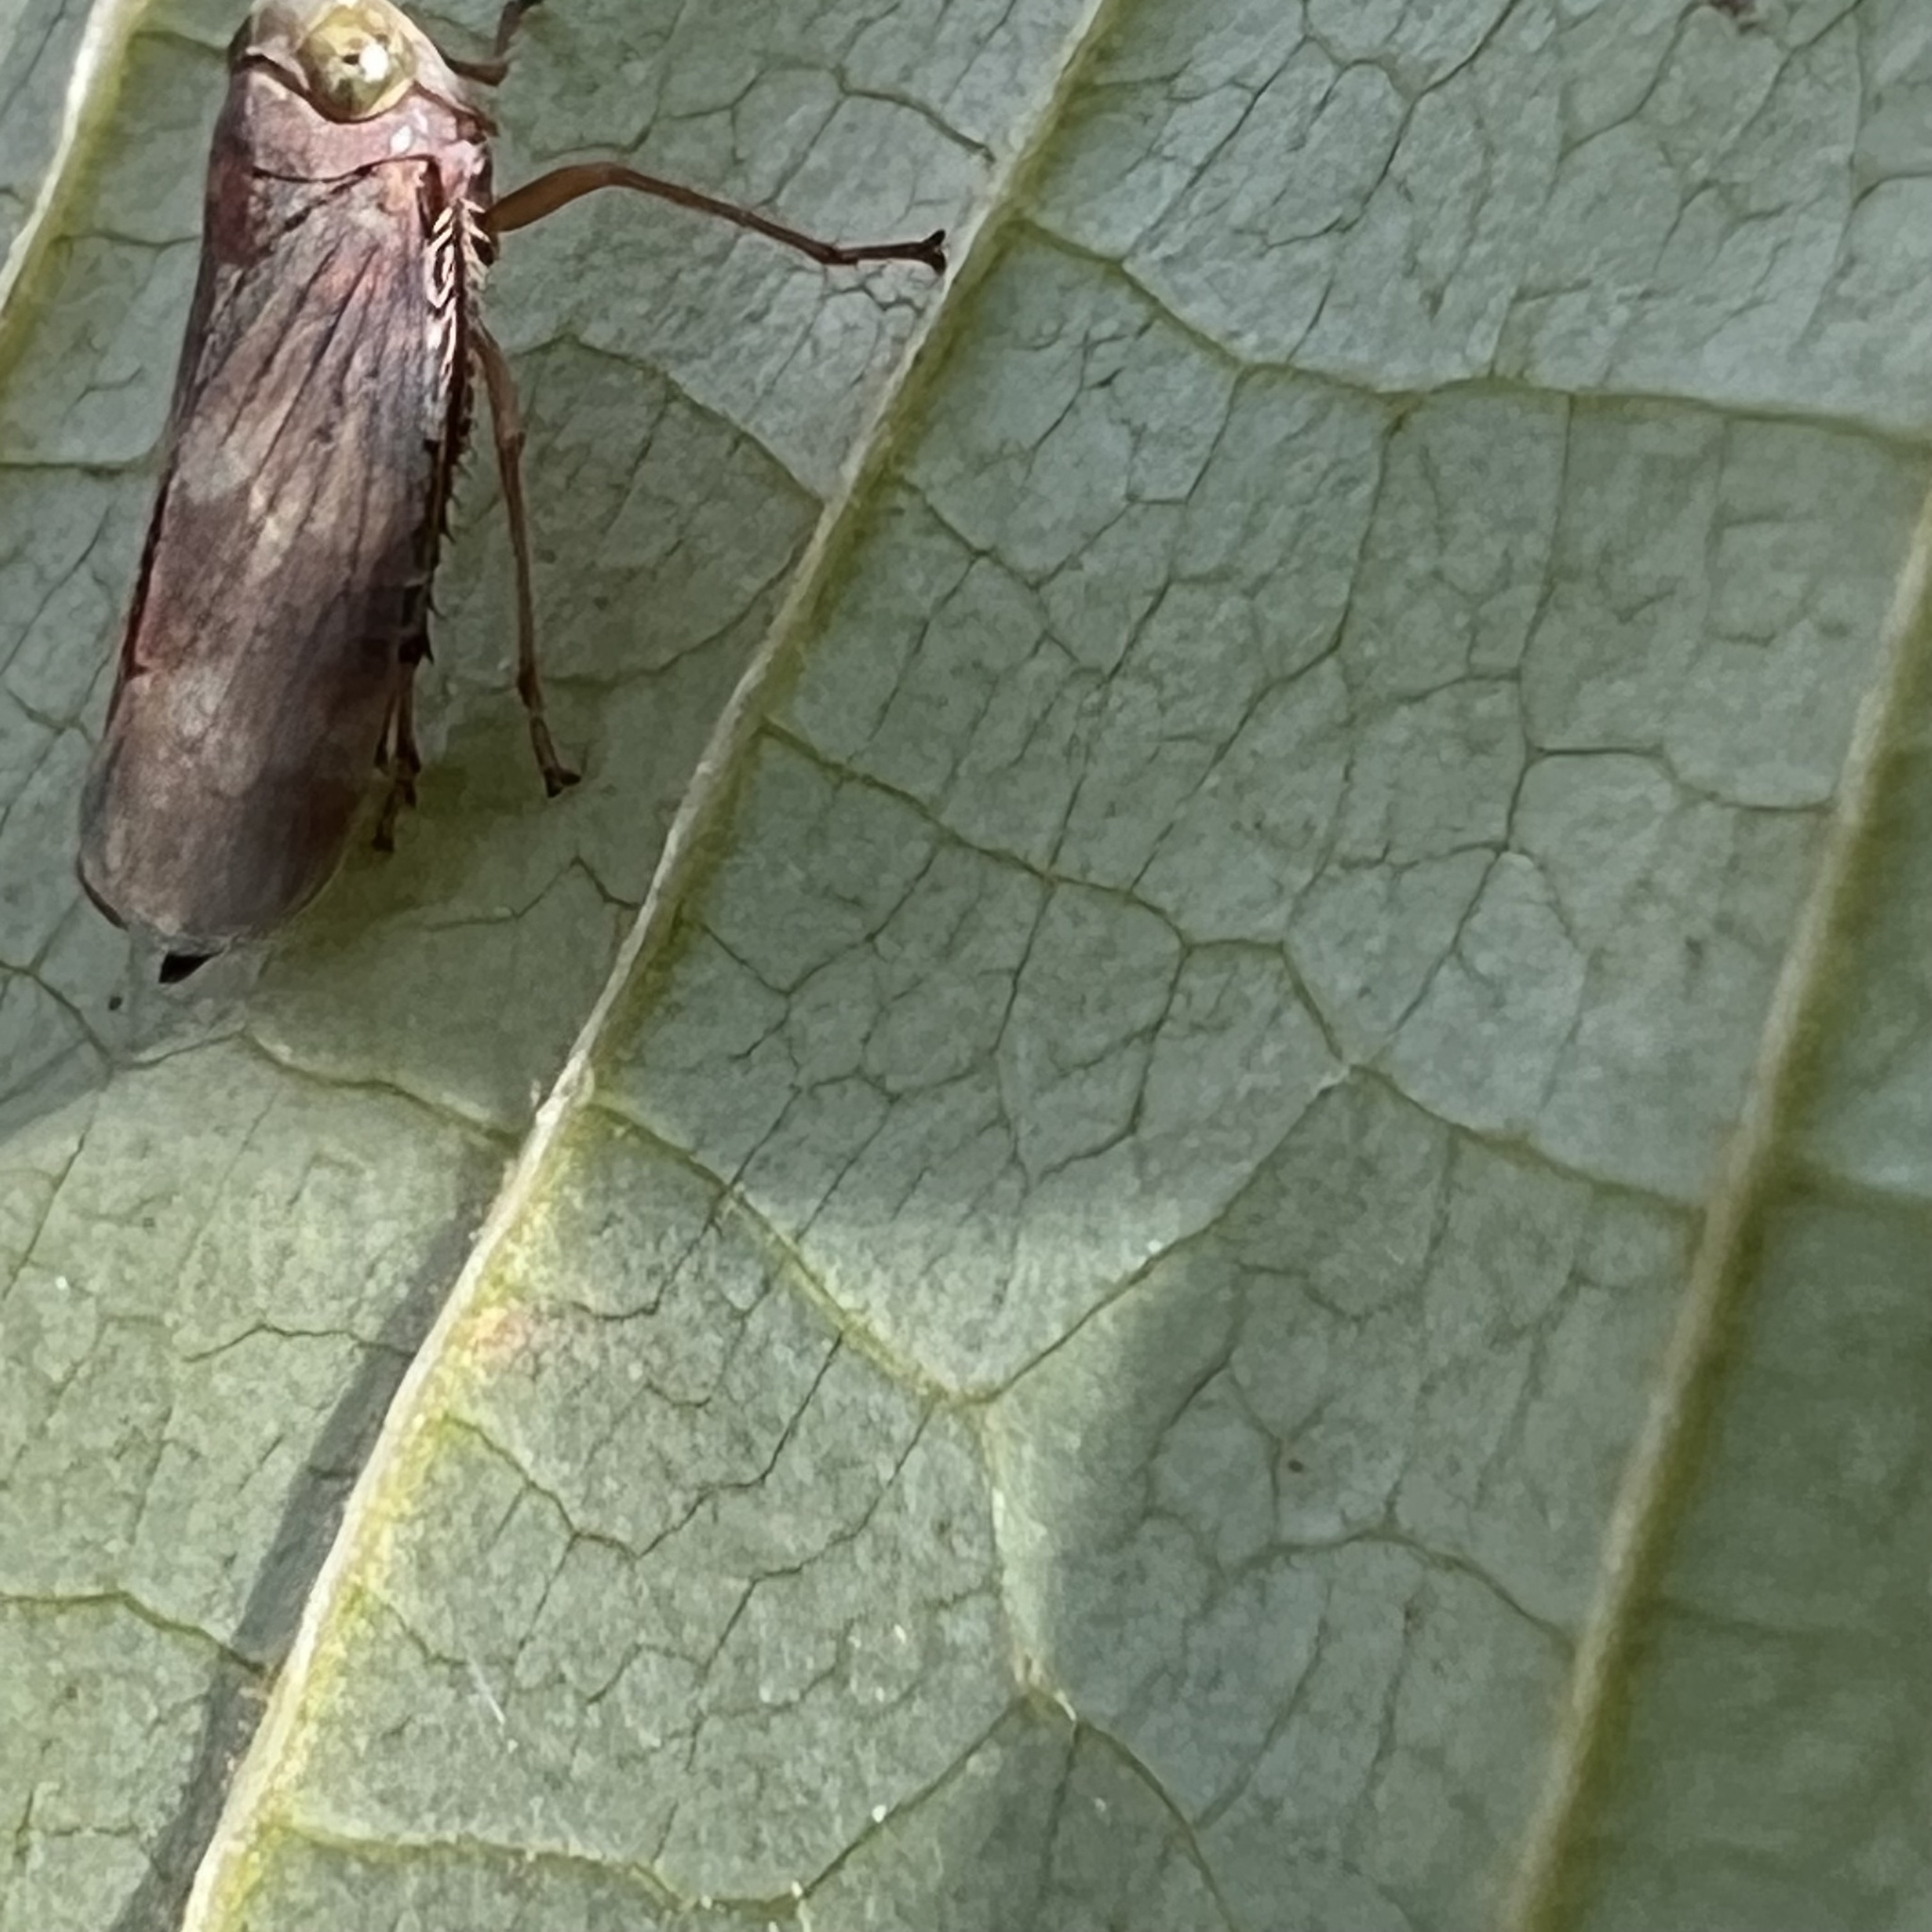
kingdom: Animalia
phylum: Arthropoda
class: Insecta
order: Hemiptera
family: Cicadellidae
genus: Jikradia
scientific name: Jikradia olitoria
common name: Coppery leafhopper
